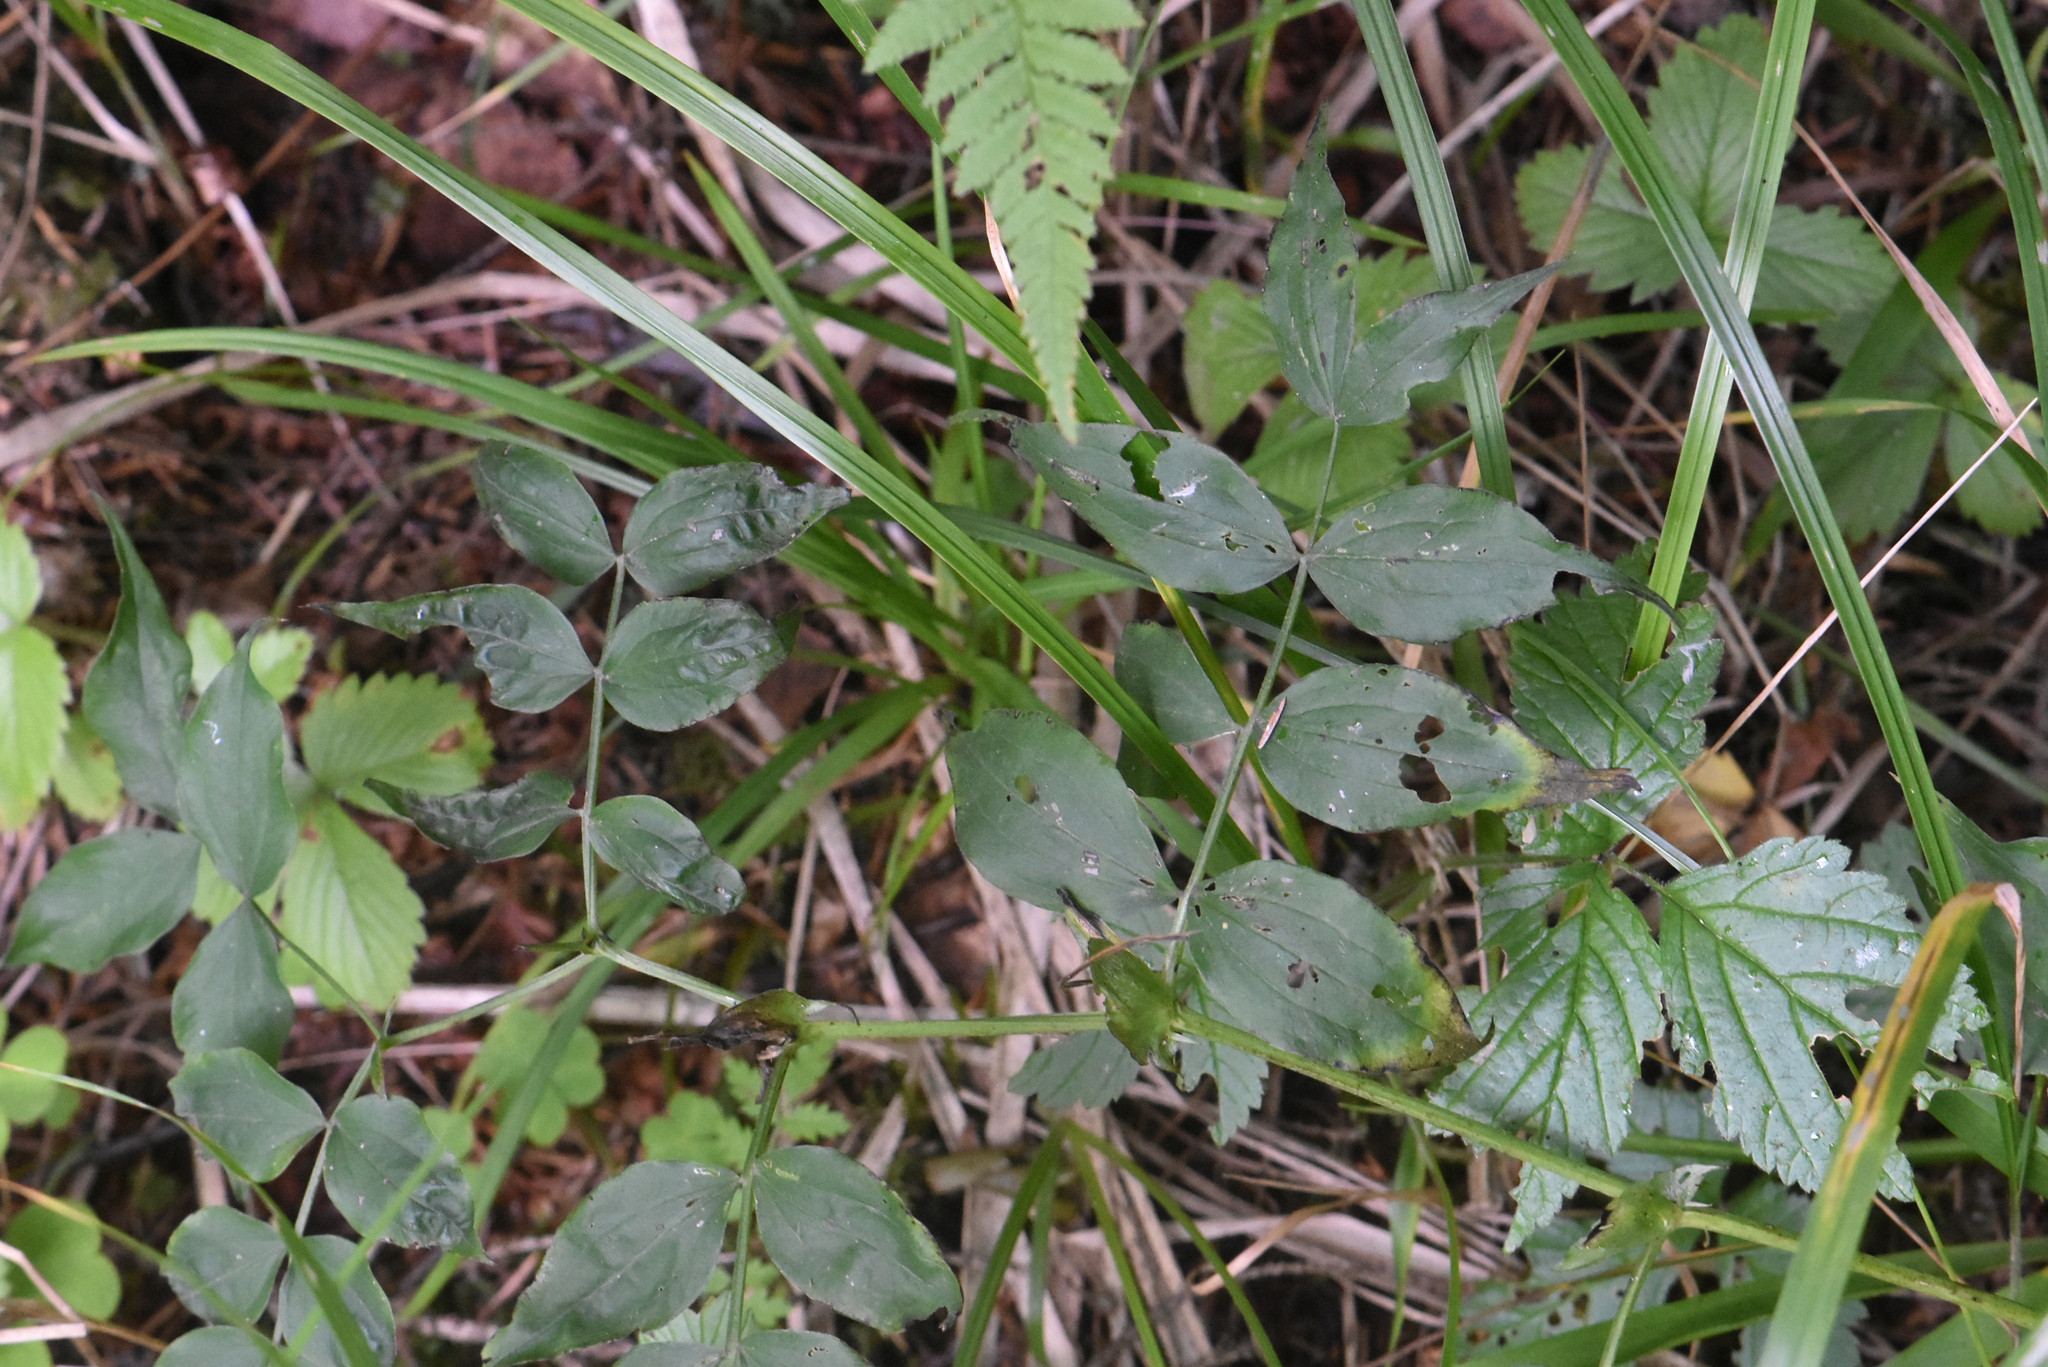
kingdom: Plantae
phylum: Tracheophyta
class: Magnoliopsida
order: Fabales
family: Fabaceae
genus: Lathyrus
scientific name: Lathyrus vernus
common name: Spring pea
